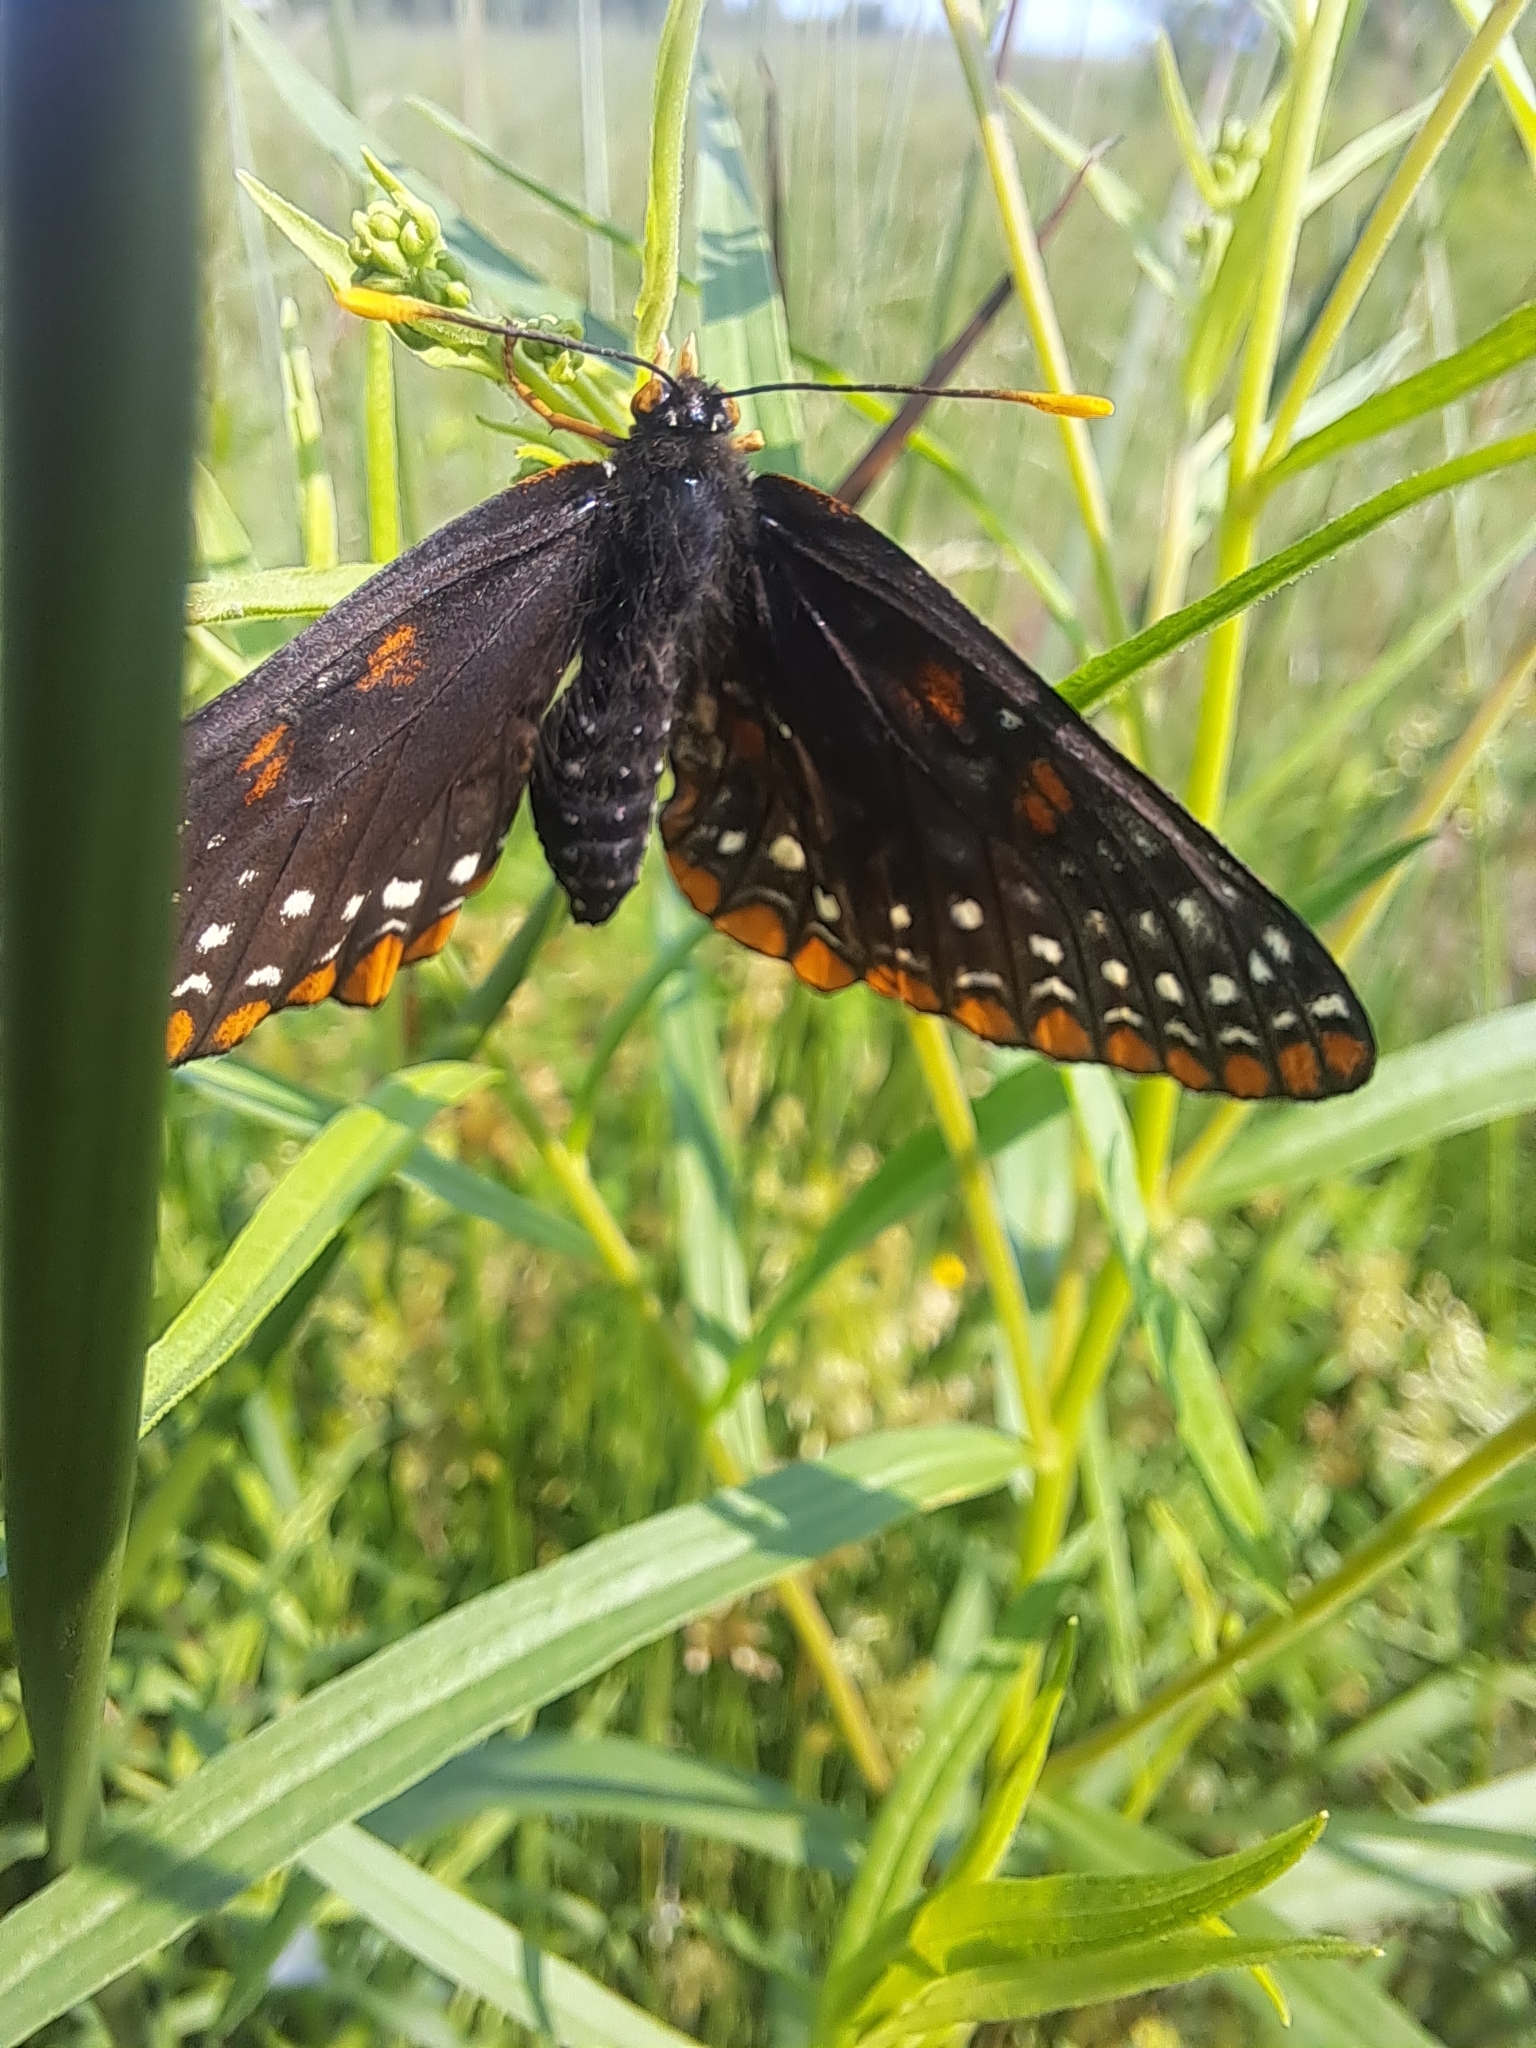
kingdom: Animalia
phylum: Arthropoda
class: Insecta
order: Lepidoptera
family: Nymphalidae
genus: Euphydryas
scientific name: Euphydryas phaeton
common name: Baltimore checkerspot
